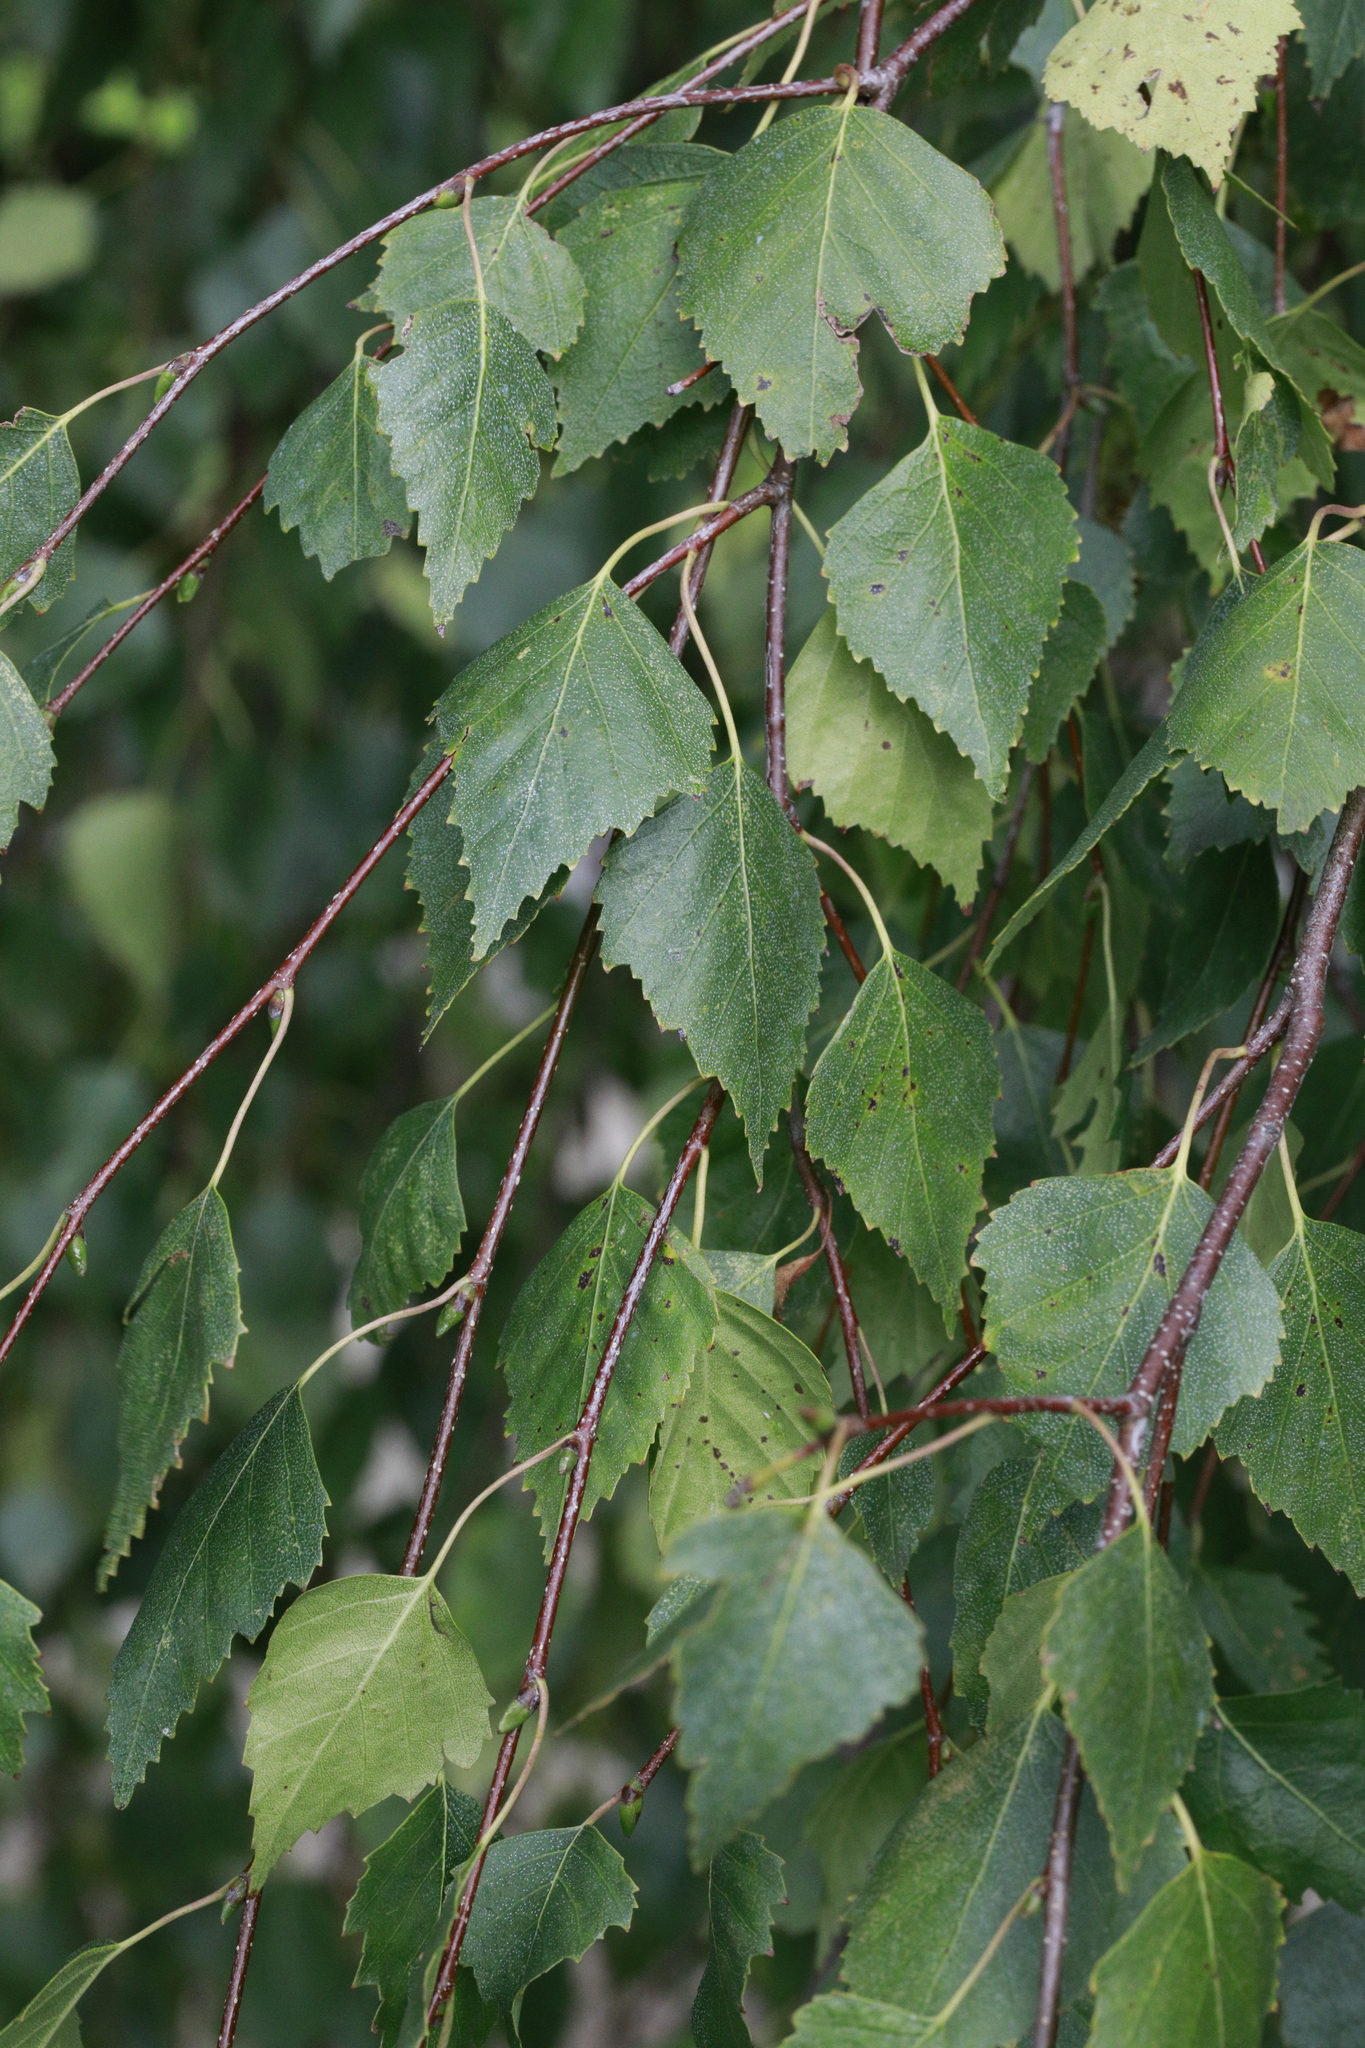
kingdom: Plantae
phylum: Tracheophyta
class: Magnoliopsida
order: Fagales
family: Betulaceae
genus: Betula
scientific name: Betula pendula
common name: Silver birch
